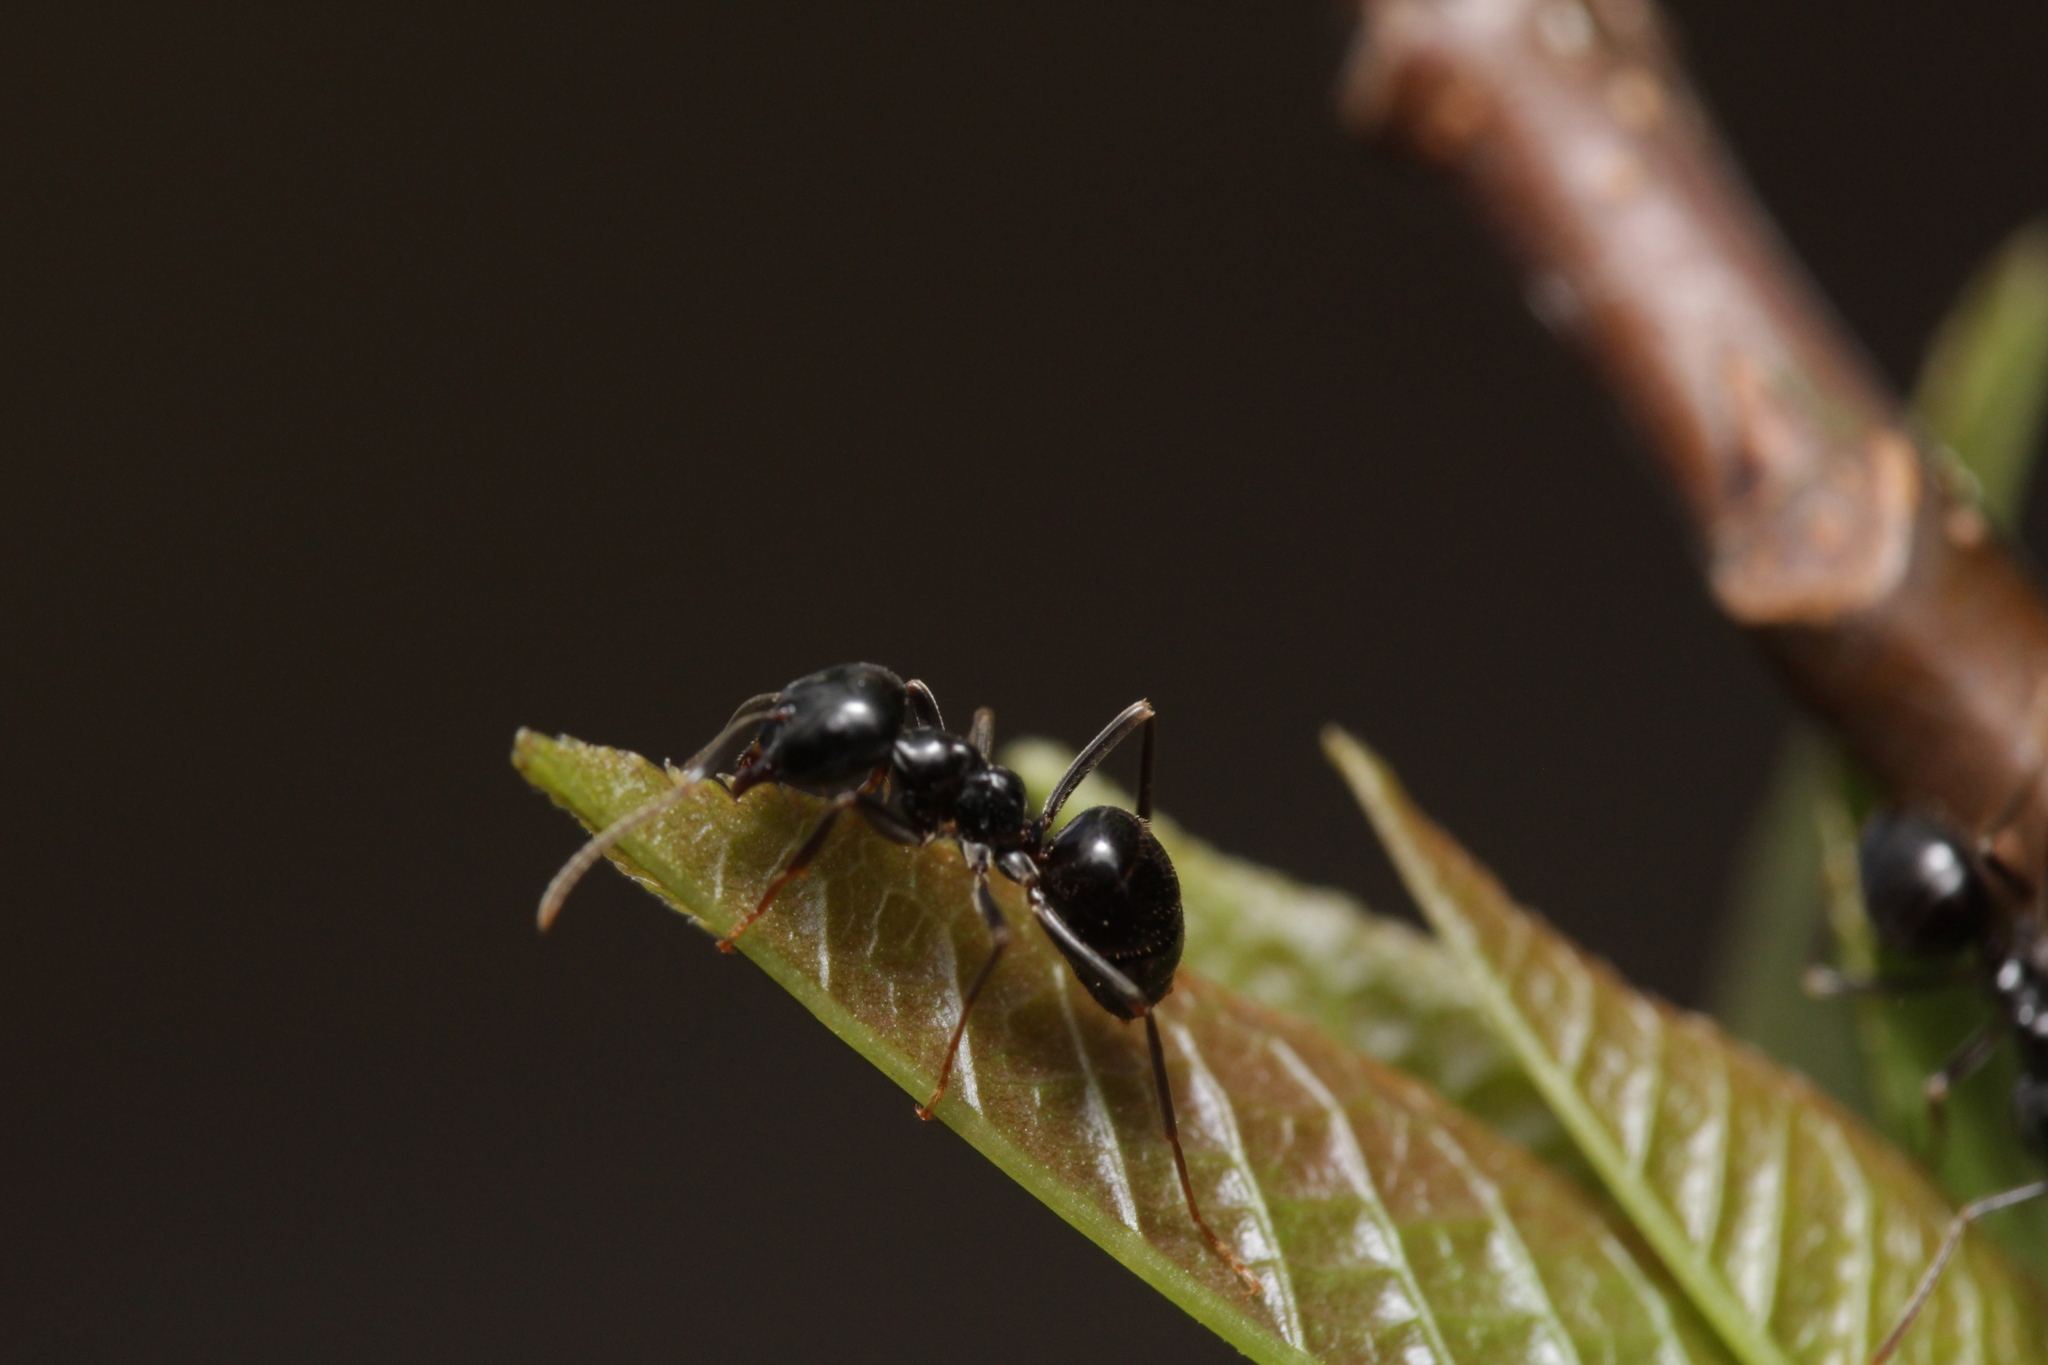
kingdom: Animalia
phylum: Arthropoda
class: Insecta
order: Hymenoptera
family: Formicidae
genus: Lasius
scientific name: Lasius fuliginosus
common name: Jet ant
